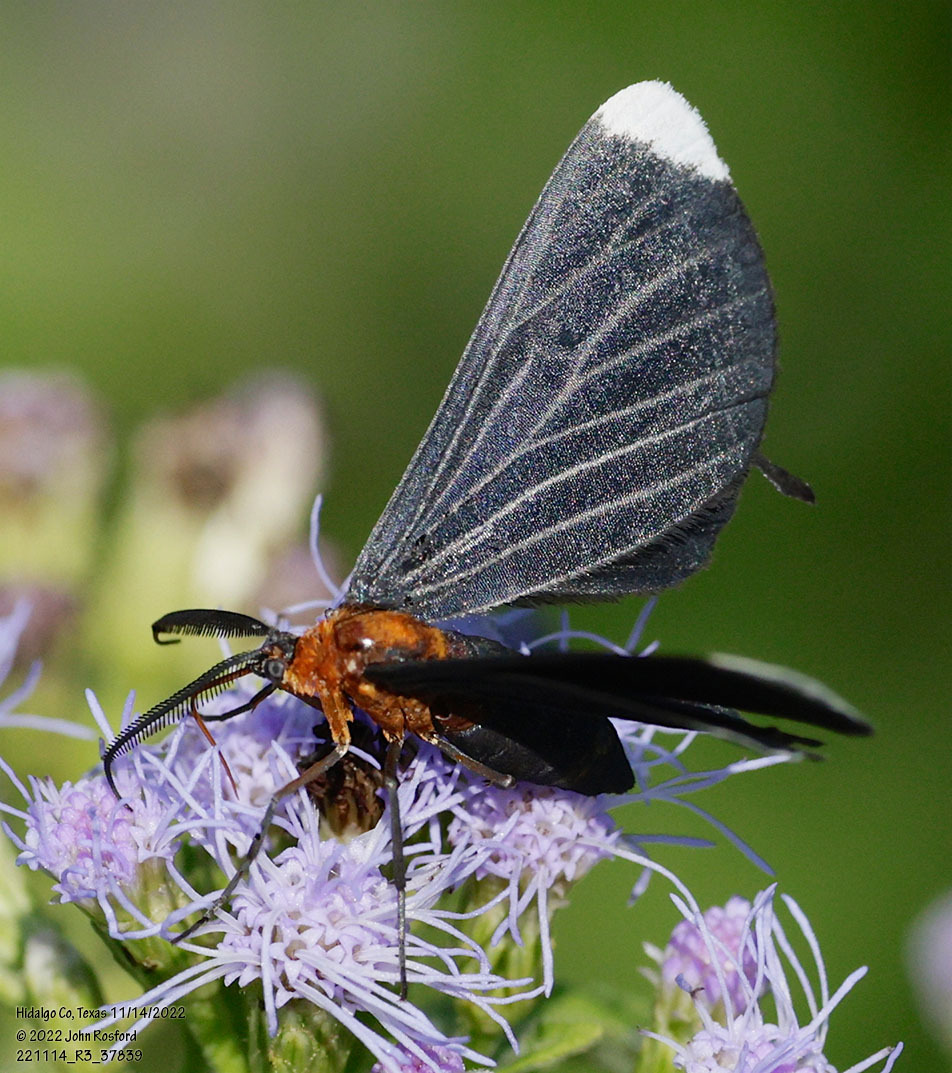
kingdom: Animalia
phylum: Arthropoda
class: Insecta
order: Lepidoptera
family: Geometridae
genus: Melanchroia
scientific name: Melanchroia chephise
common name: White-tipped black
